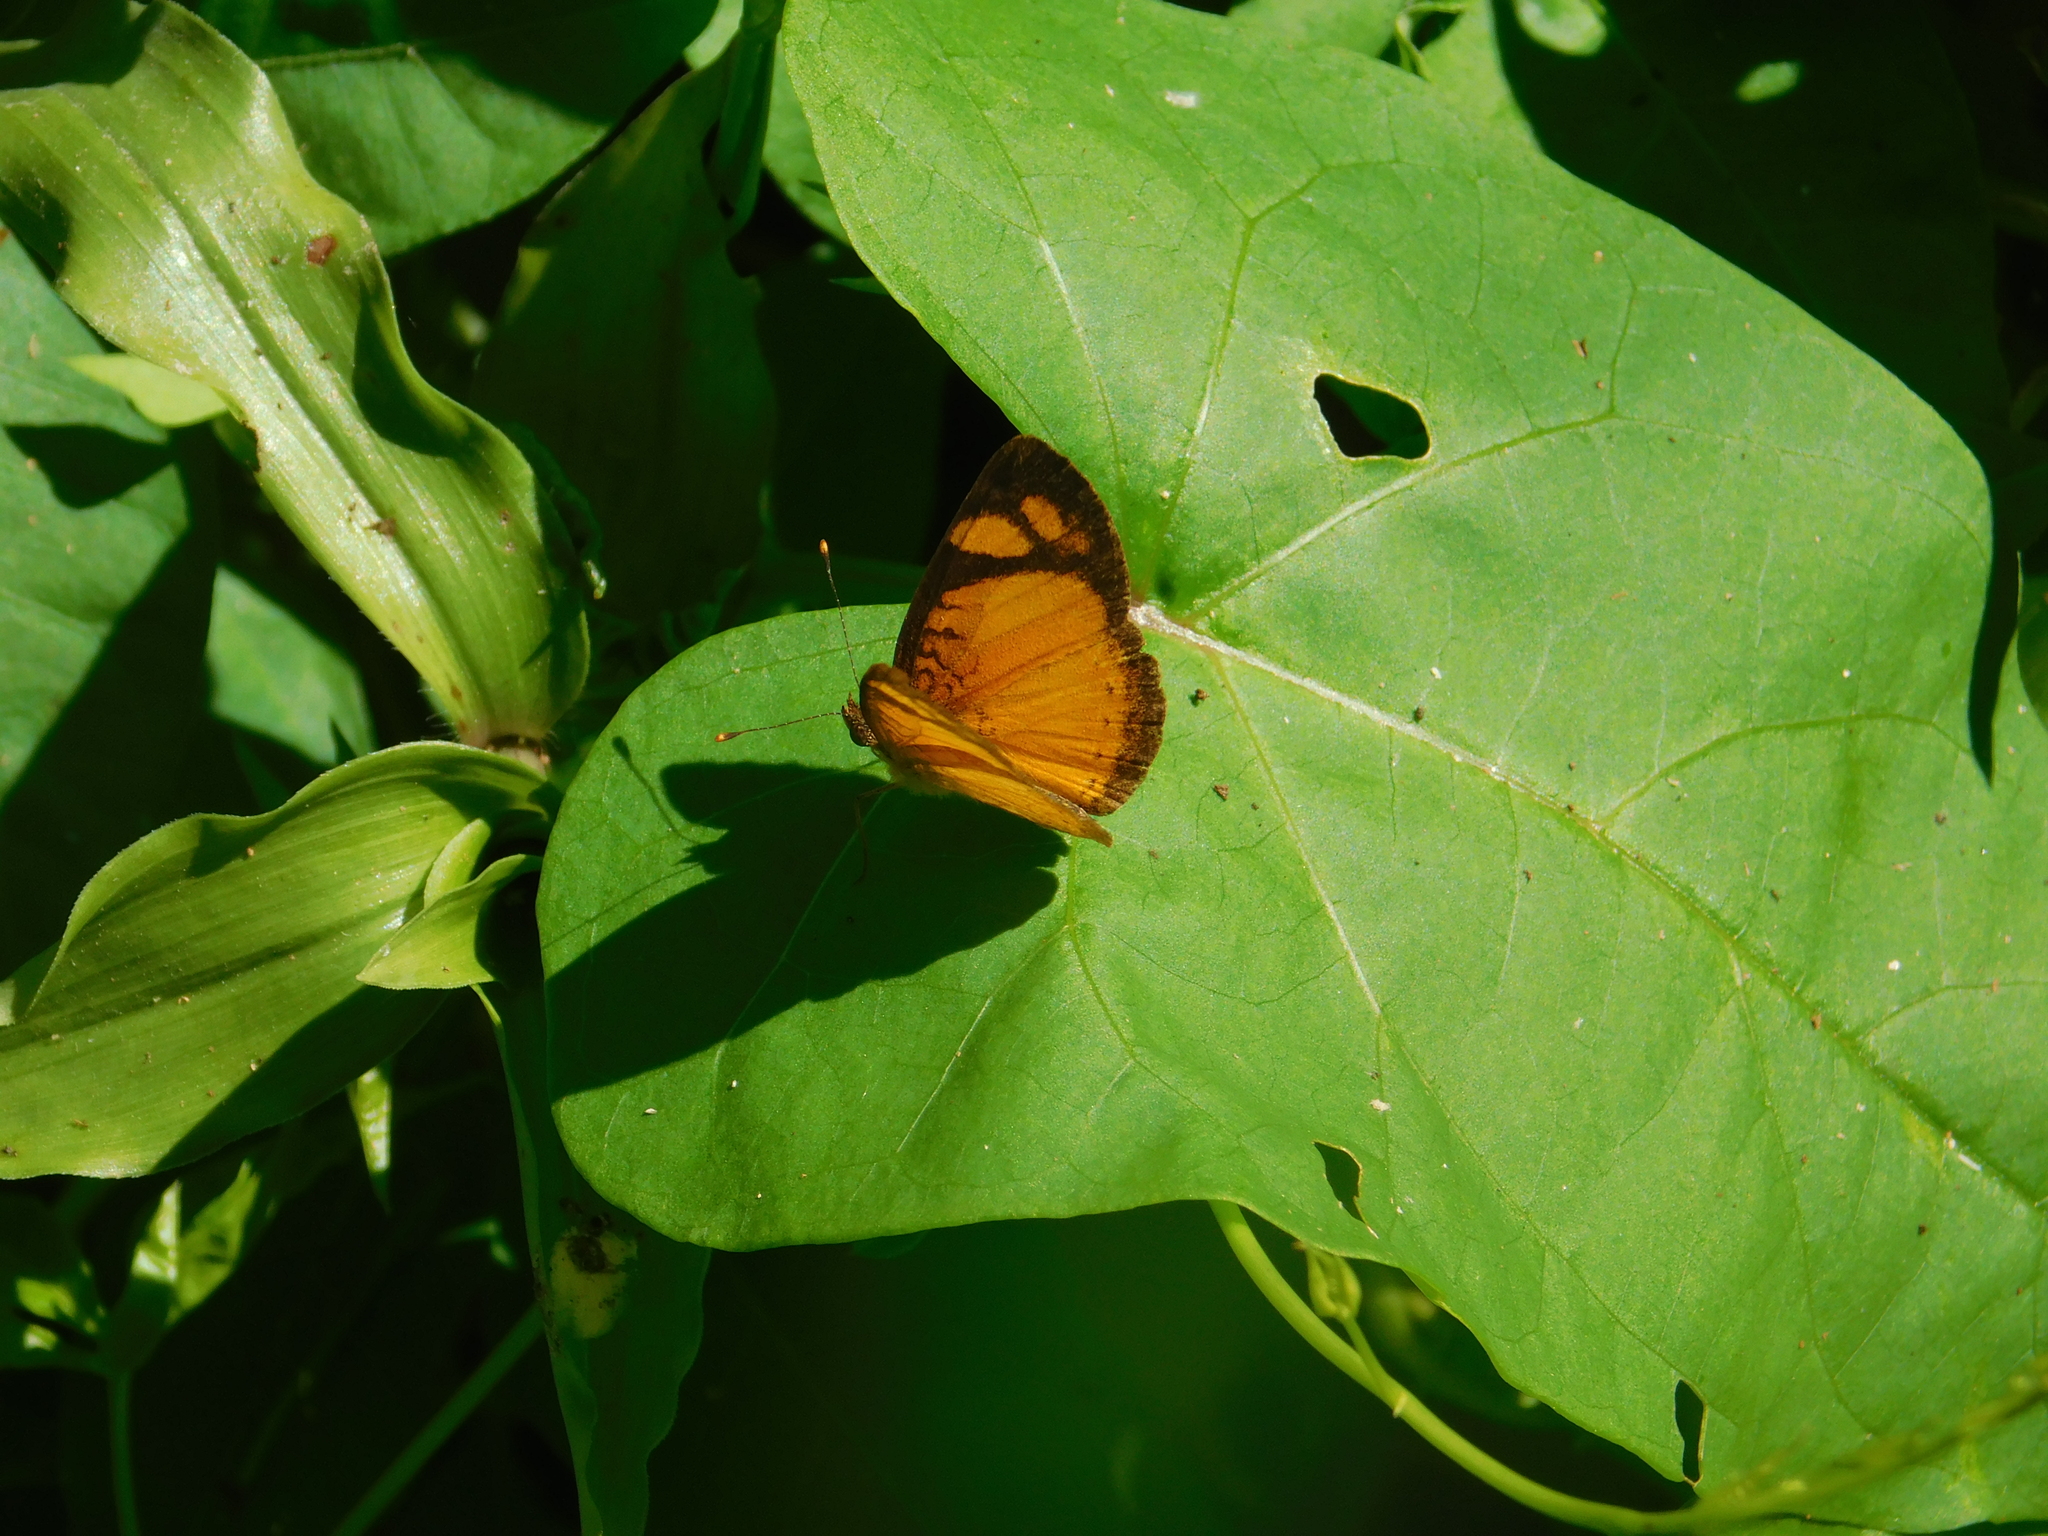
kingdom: Animalia
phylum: Arthropoda
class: Insecta
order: Lepidoptera
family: Nymphalidae
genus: Tegosa
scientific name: Tegosa claudina
